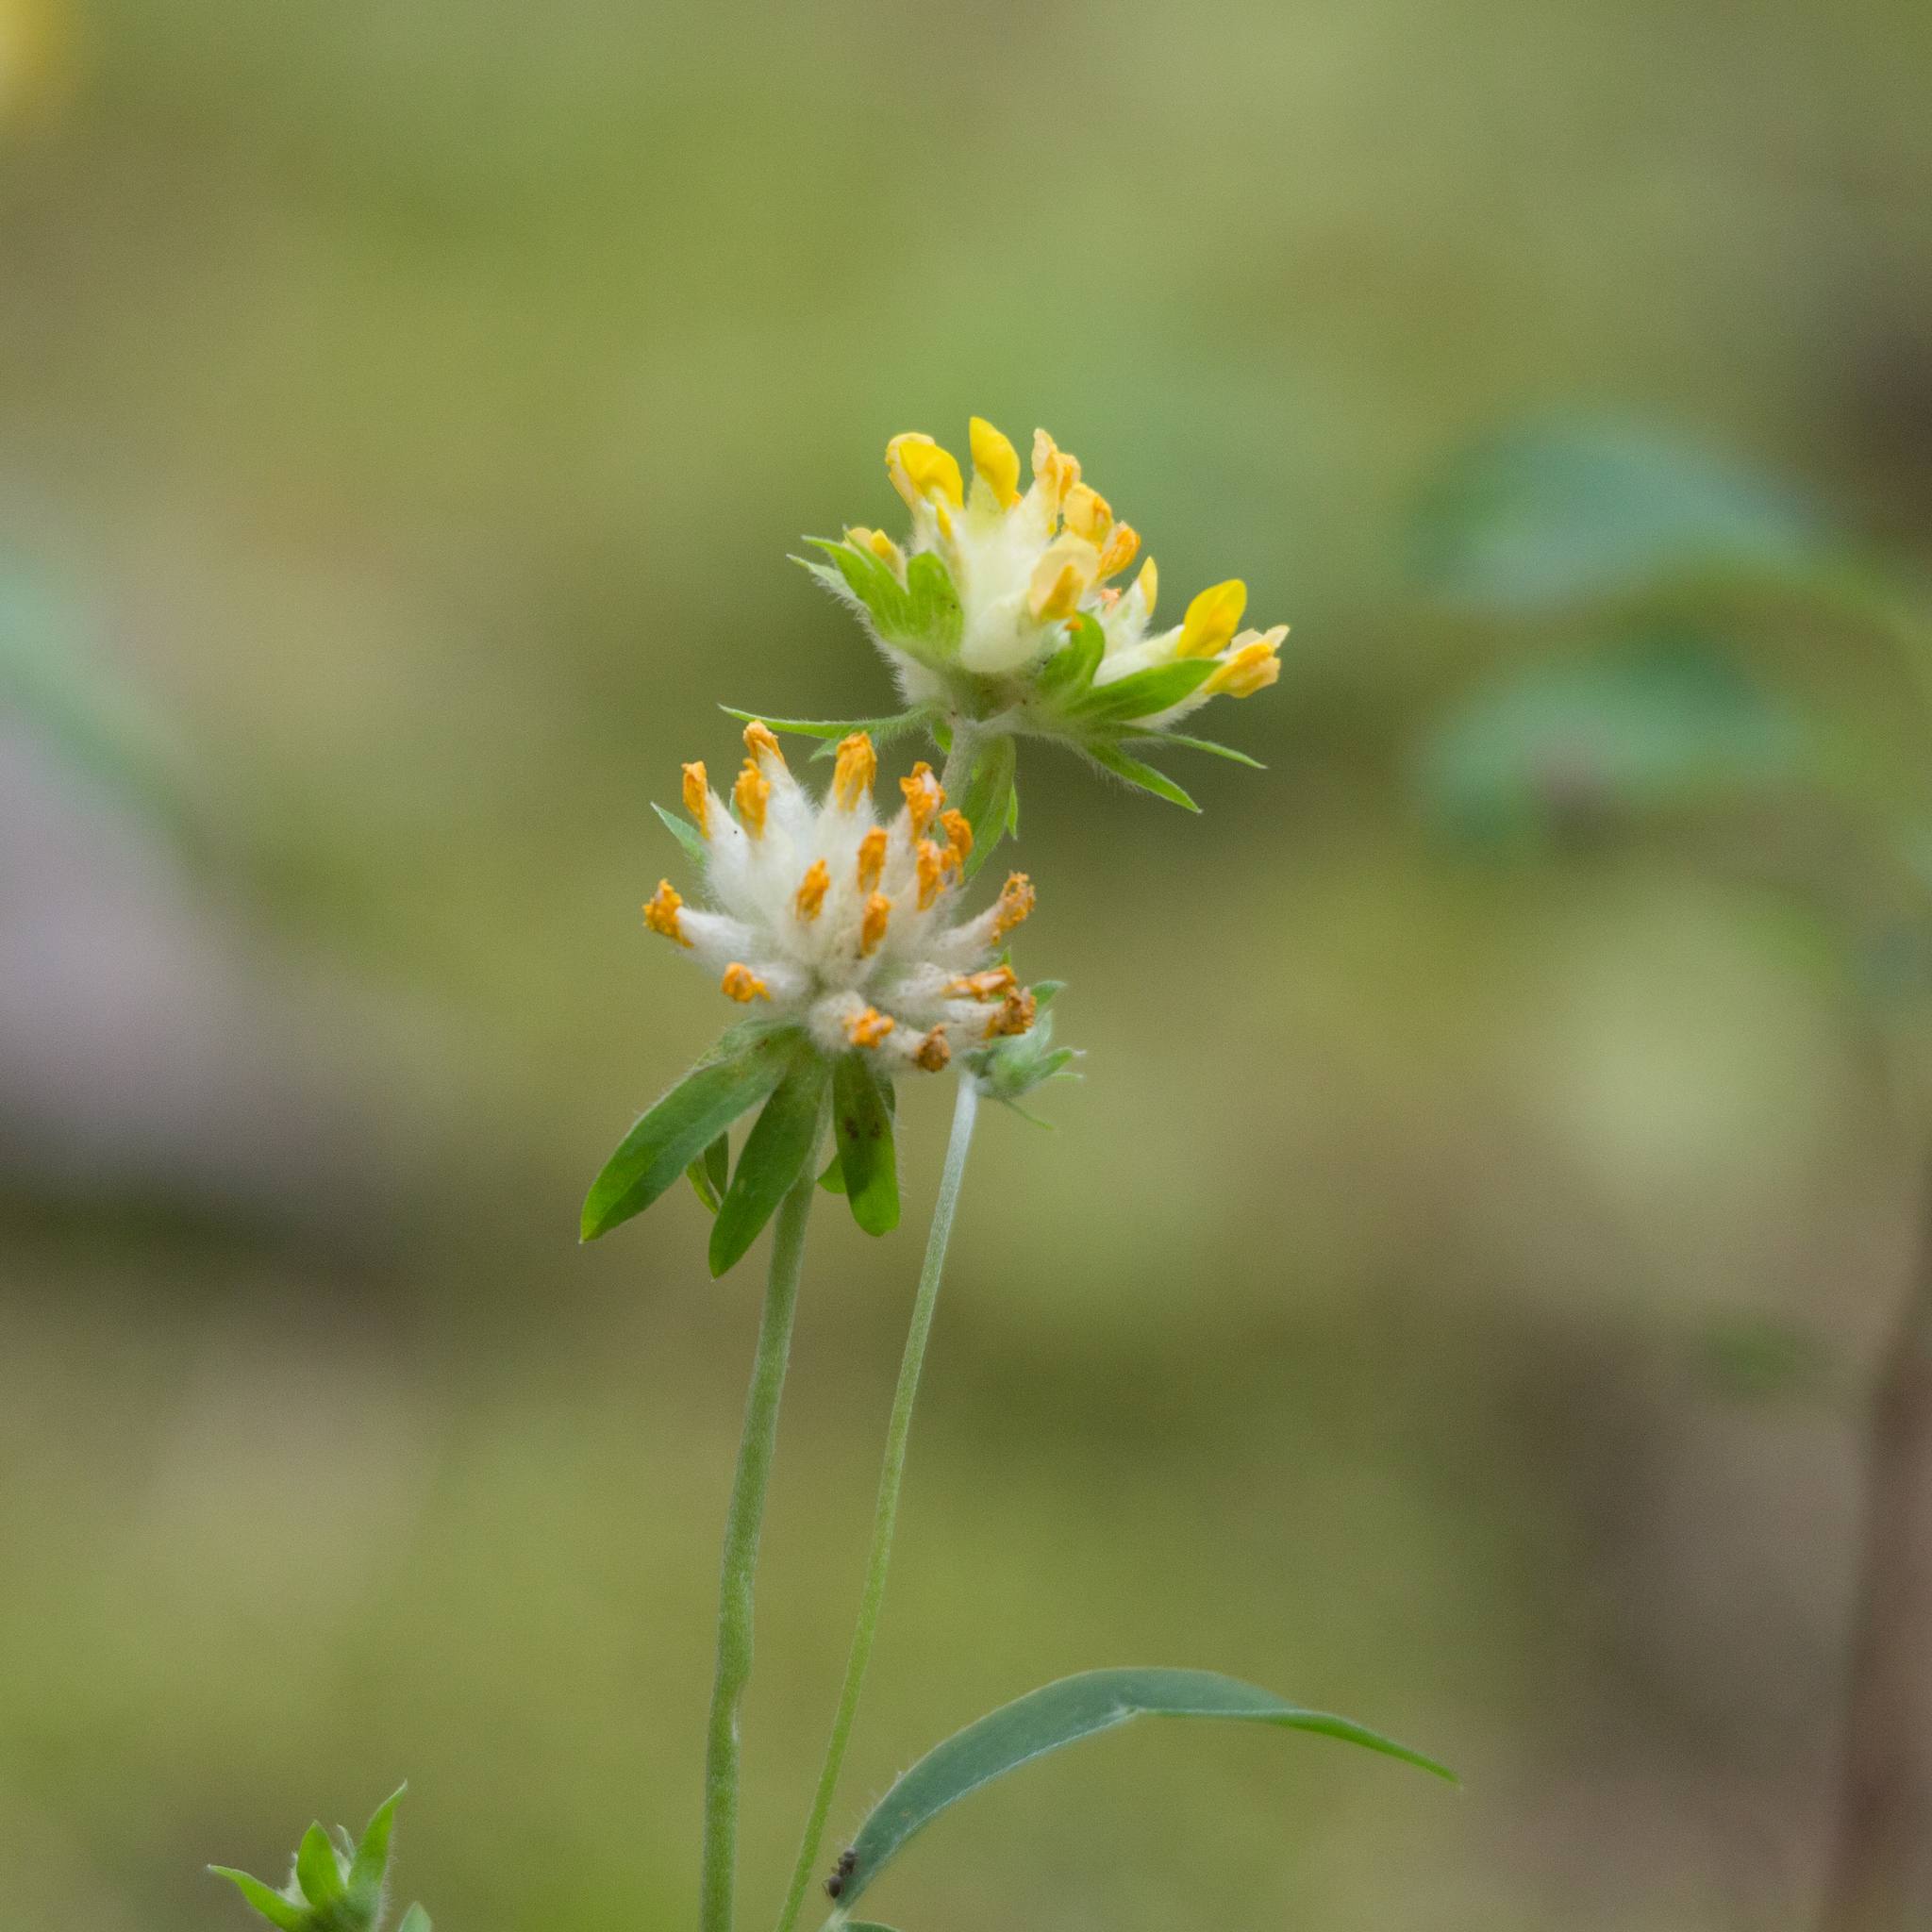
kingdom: Plantae
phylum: Tracheophyta
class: Magnoliopsida
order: Fabales
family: Fabaceae
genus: Anthyllis
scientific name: Anthyllis vulneraria
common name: Kidney vetch
